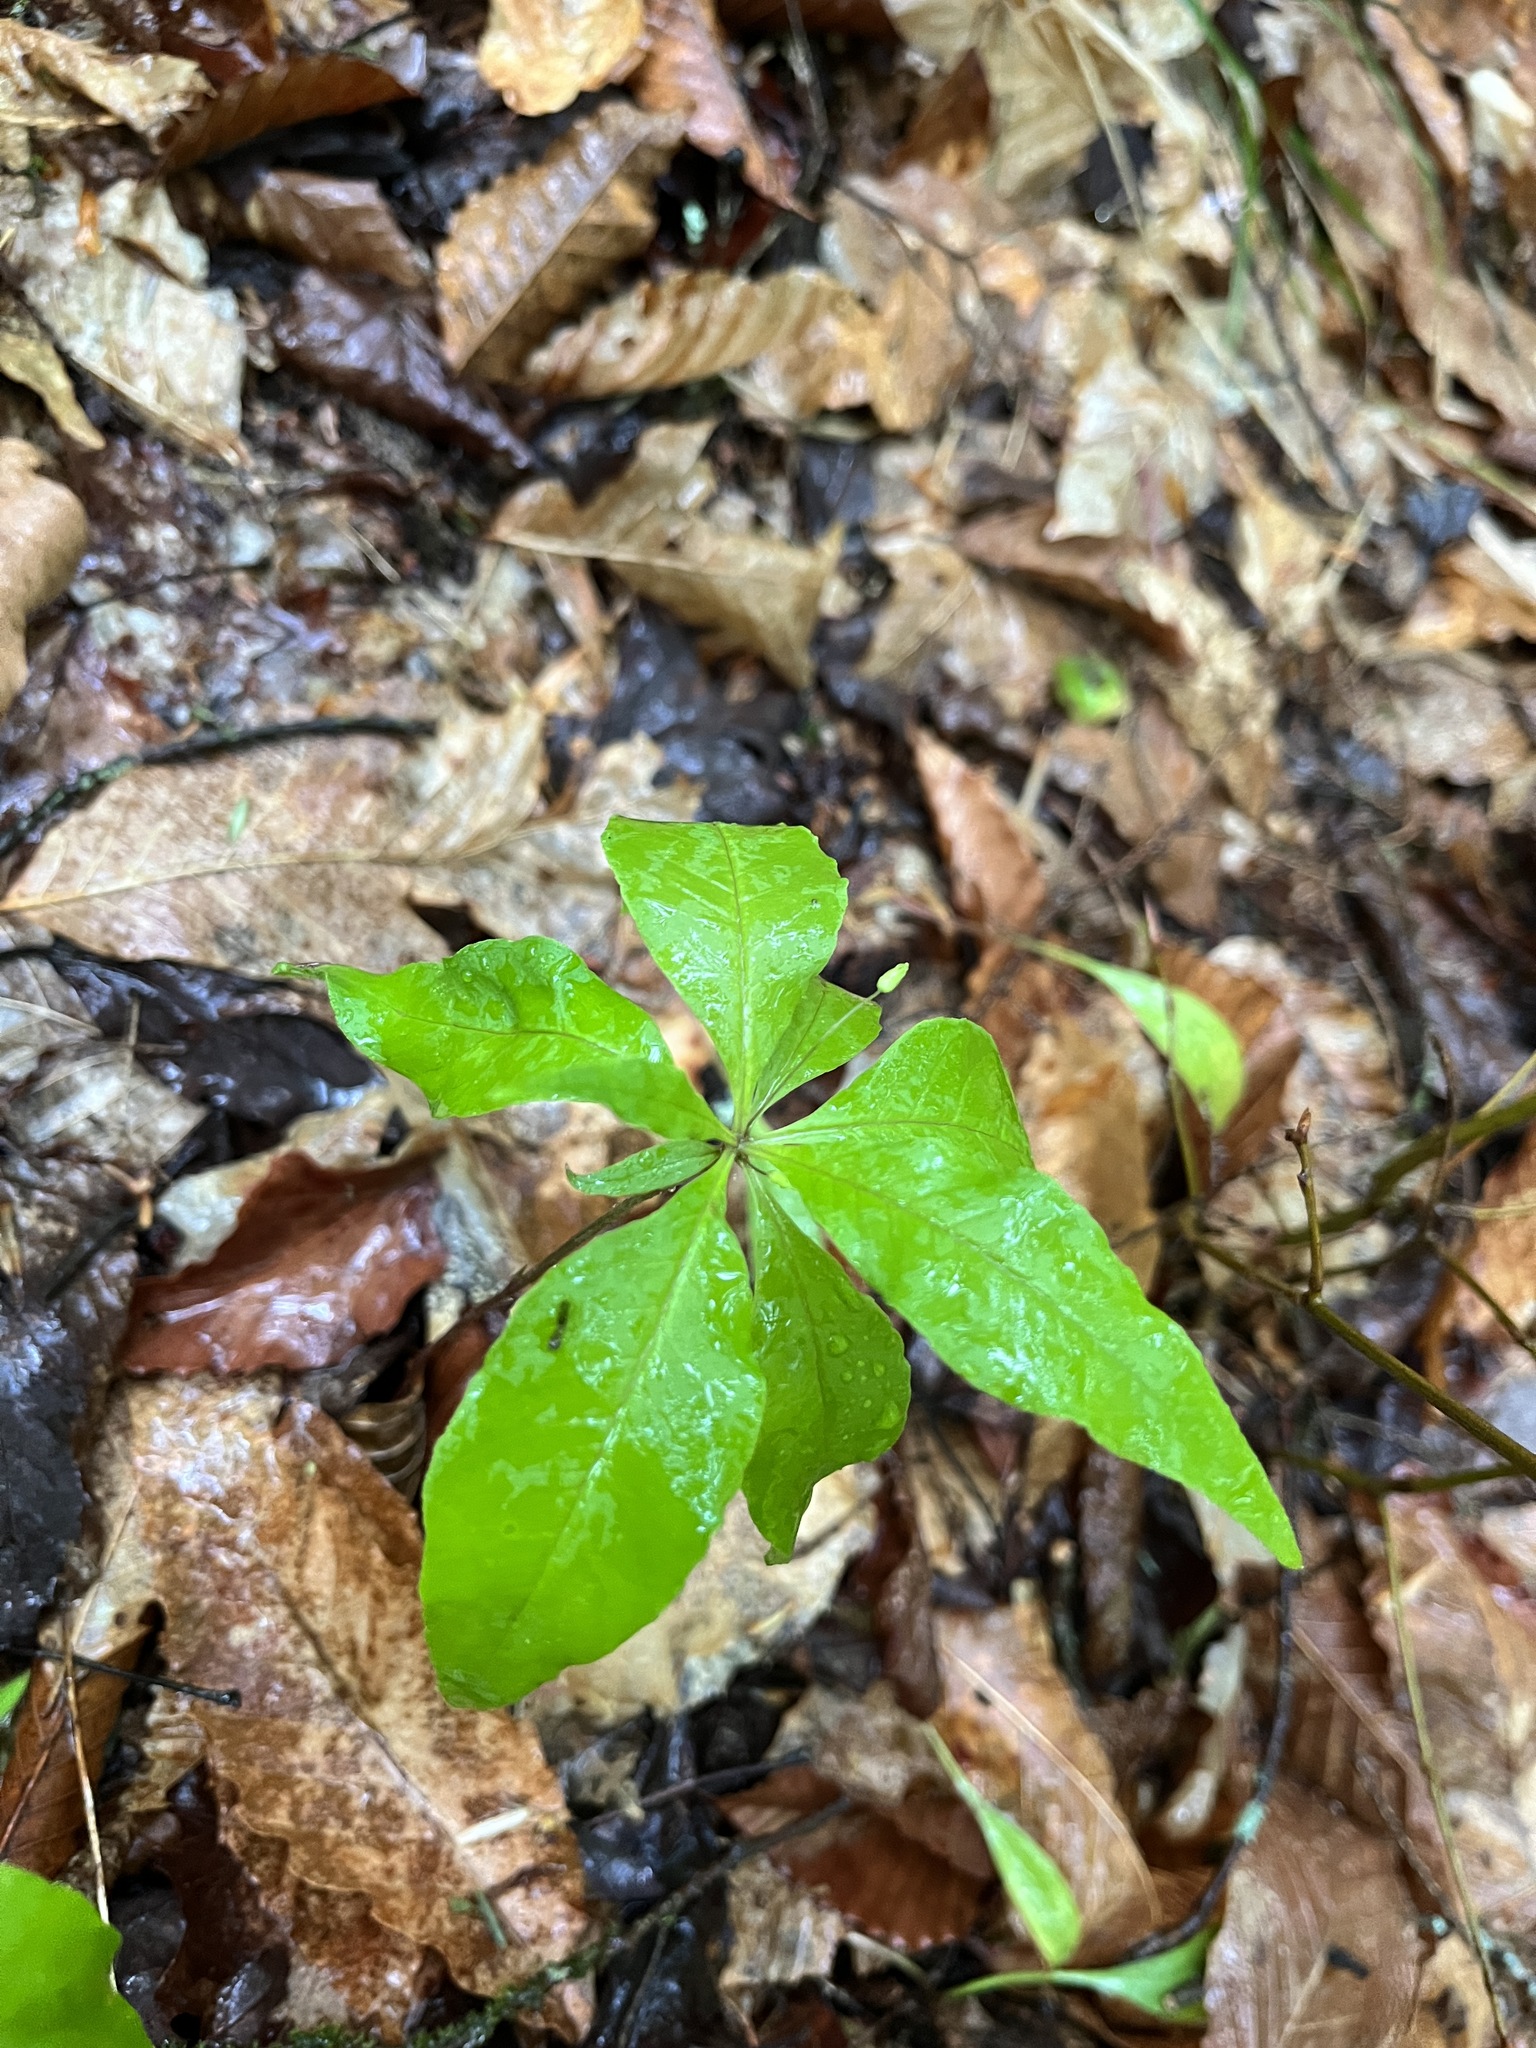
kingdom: Plantae
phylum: Tracheophyta
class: Magnoliopsida
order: Ericales
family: Primulaceae
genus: Lysimachia
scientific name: Lysimachia borealis
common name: American starflower
